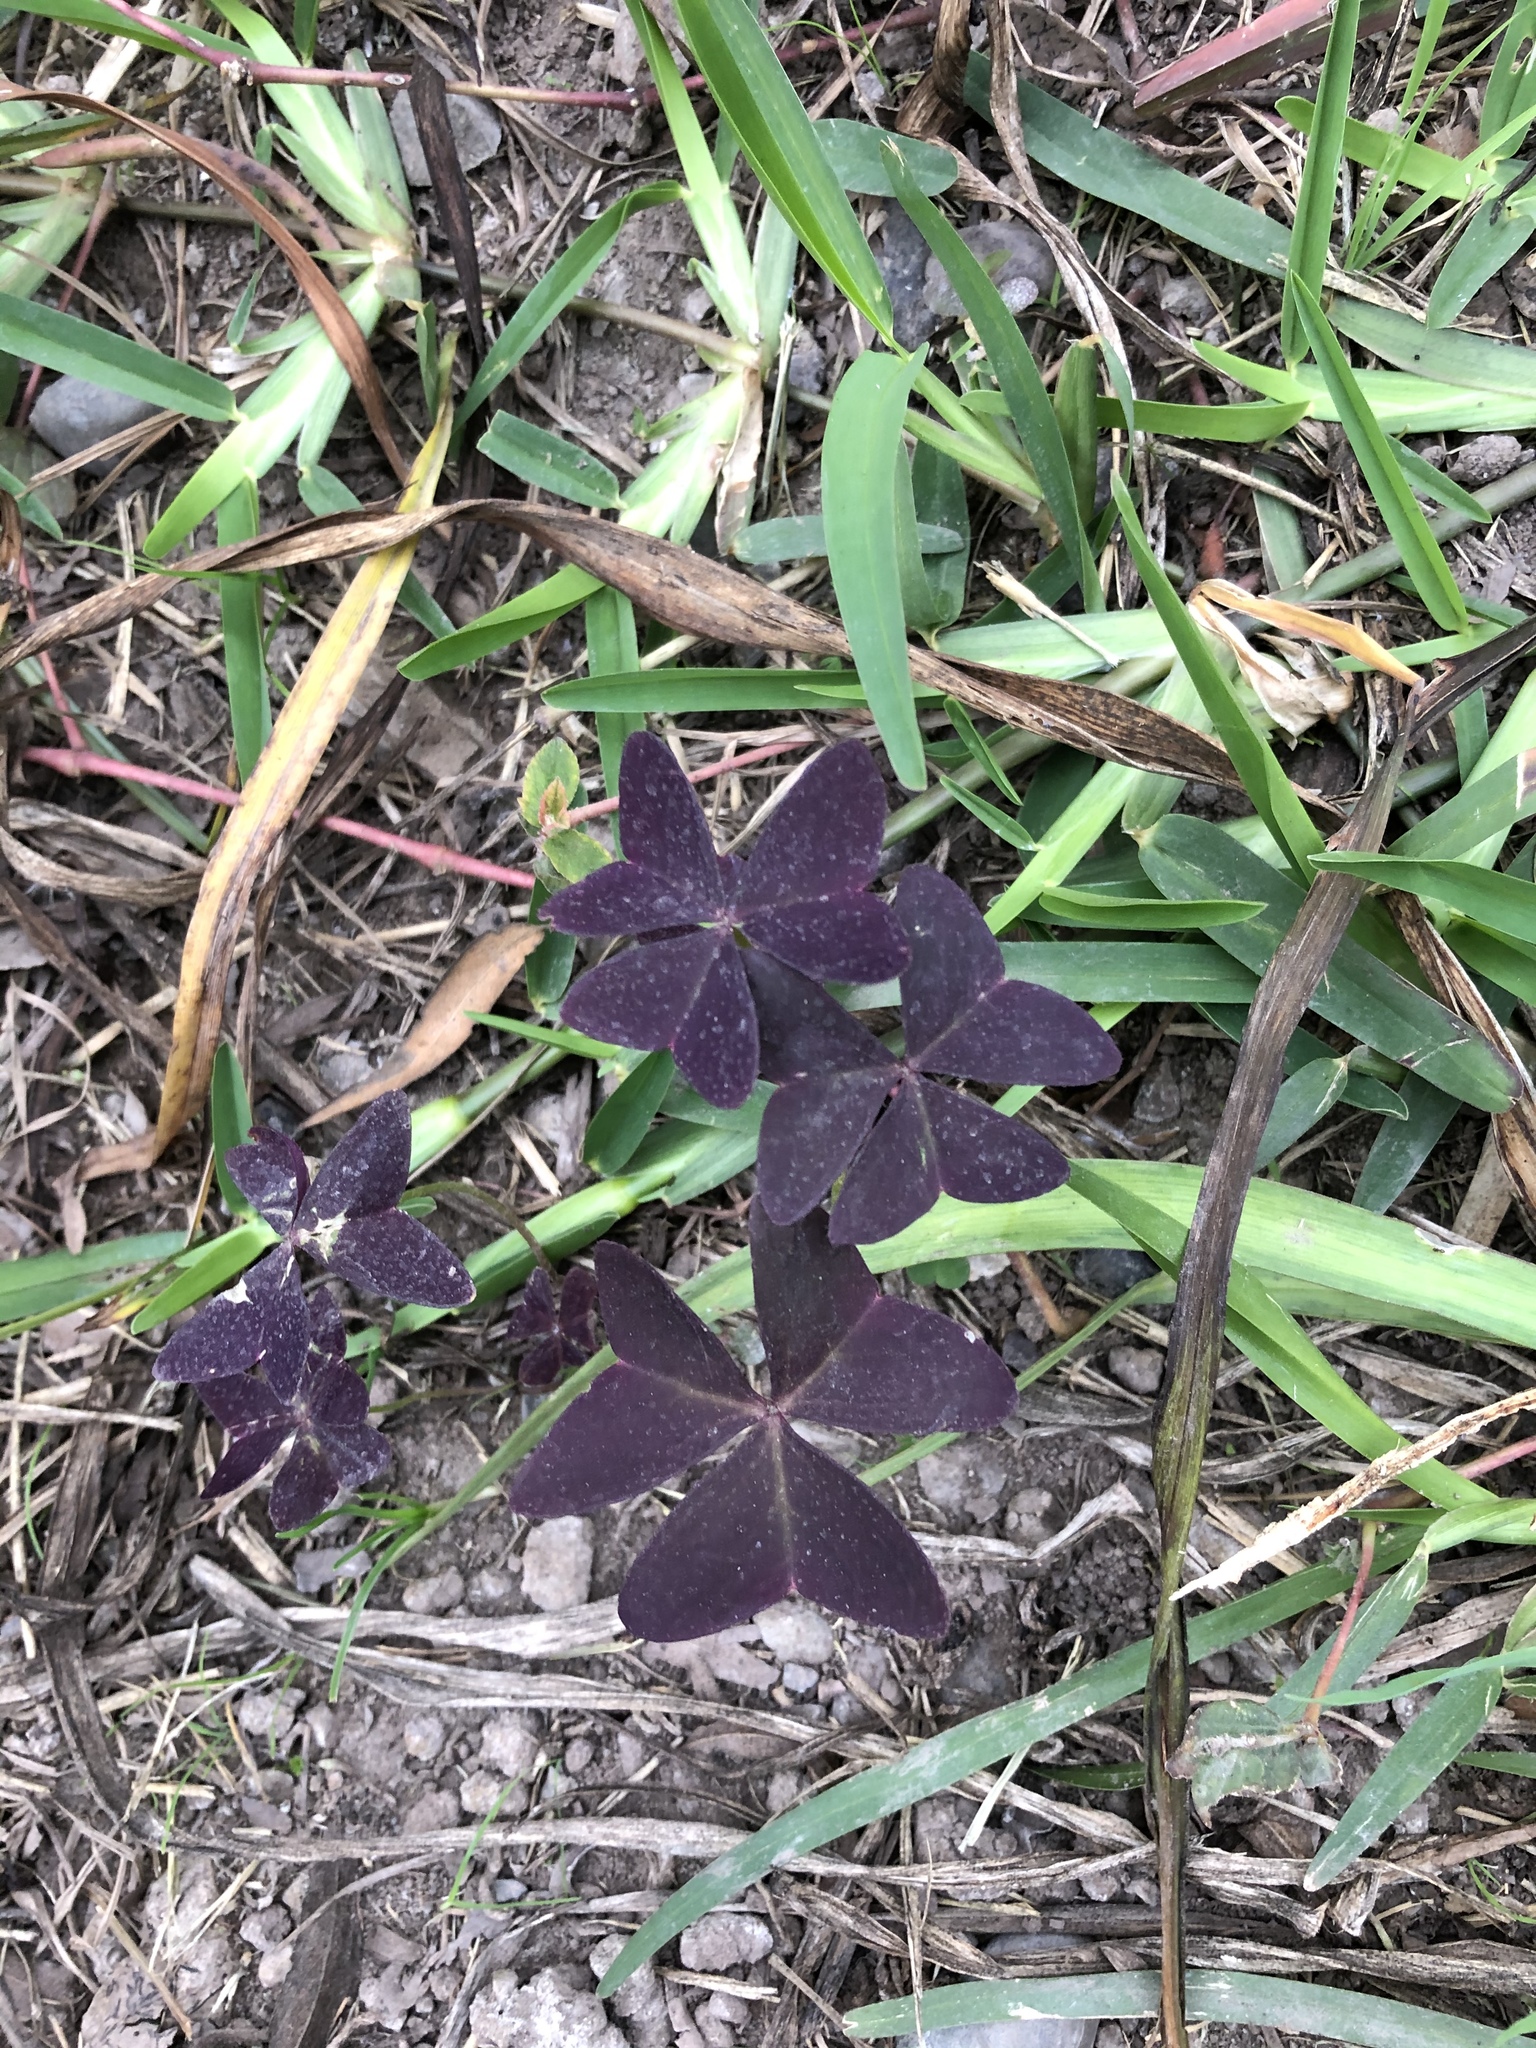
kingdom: Plantae
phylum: Tracheophyta
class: Magnoliopsida
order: Oxalidales
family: Oxalidaceae
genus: Oxalis
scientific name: Oxalis triangularis
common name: Wood sorrel
